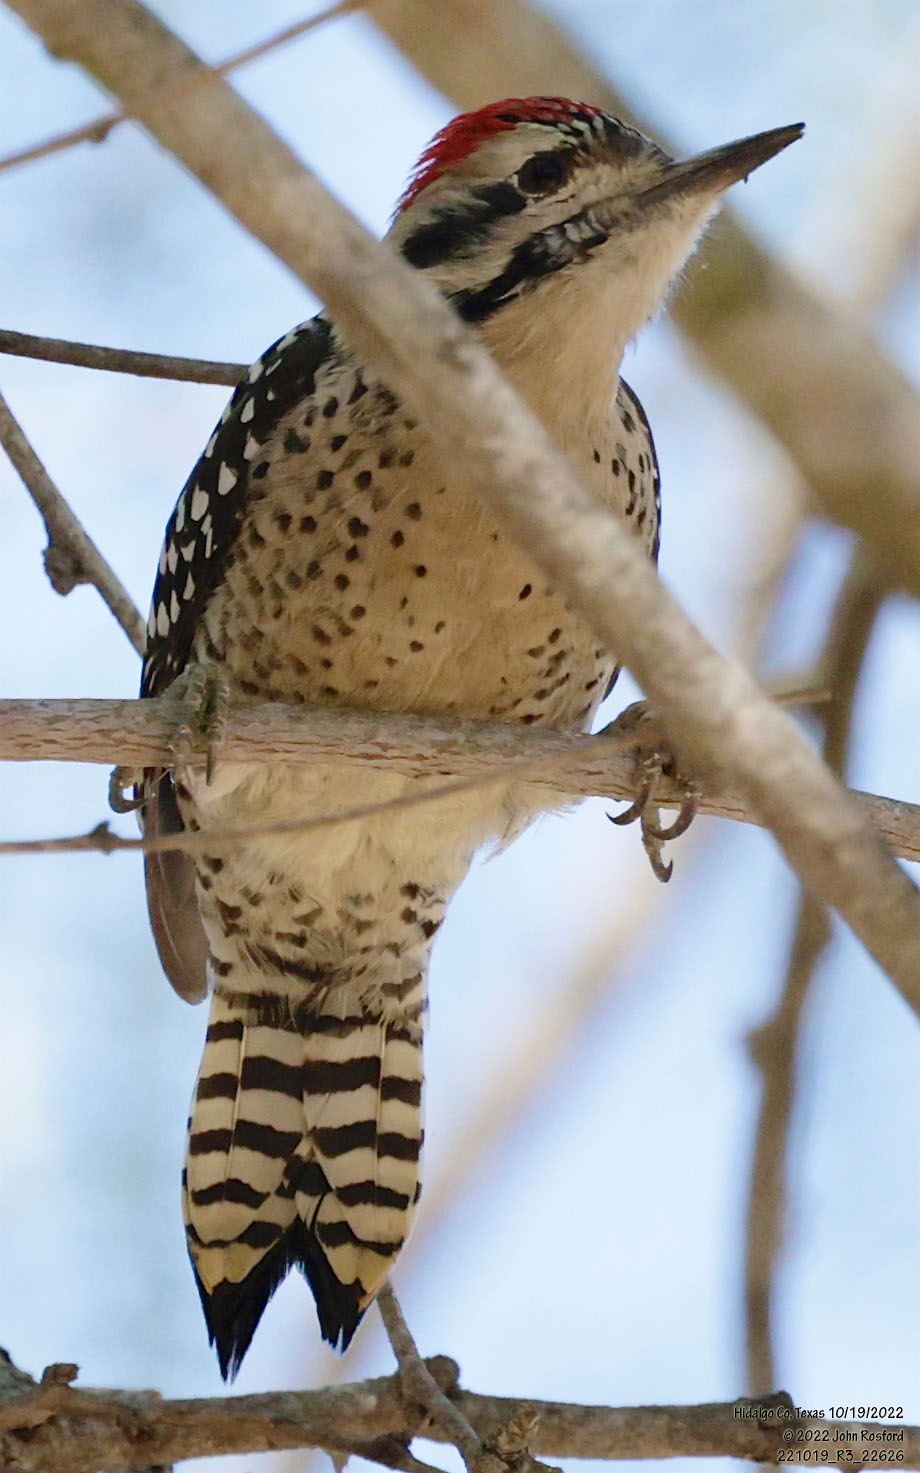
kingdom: Animalia
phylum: Chordata
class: Aves
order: Piciformes
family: Picidae
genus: Dryobates
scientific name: Dryobates scalaris
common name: Ladder-backed woodpecker
